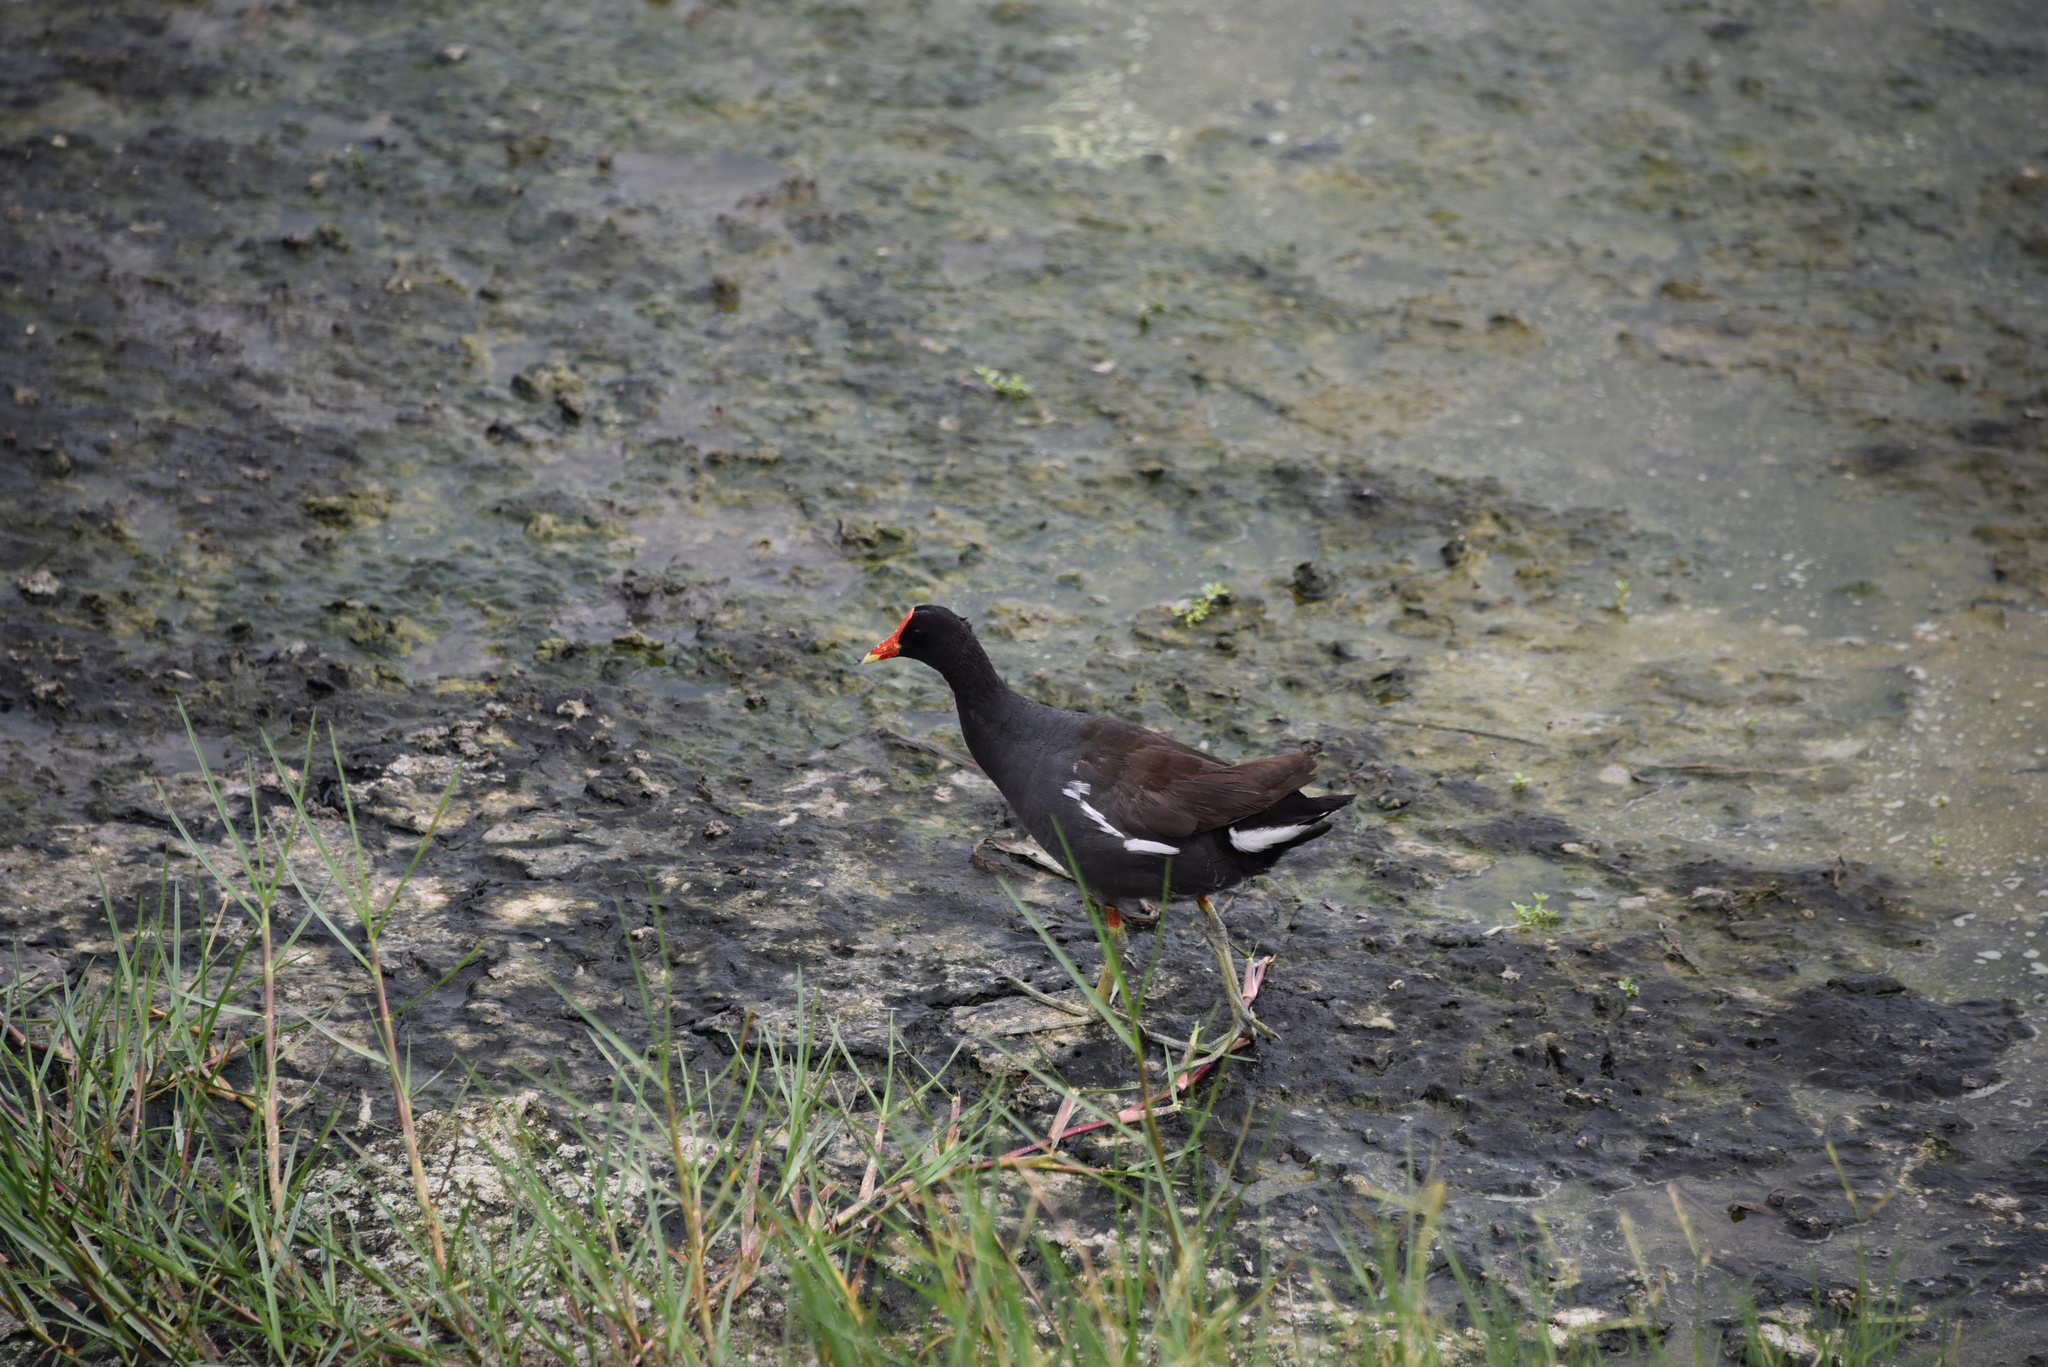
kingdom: Animalia
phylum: Chordata
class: Aves
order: Gruiformes
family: Rallidae
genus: Gallinula
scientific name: Gallinula chloropus
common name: Common moorhen
